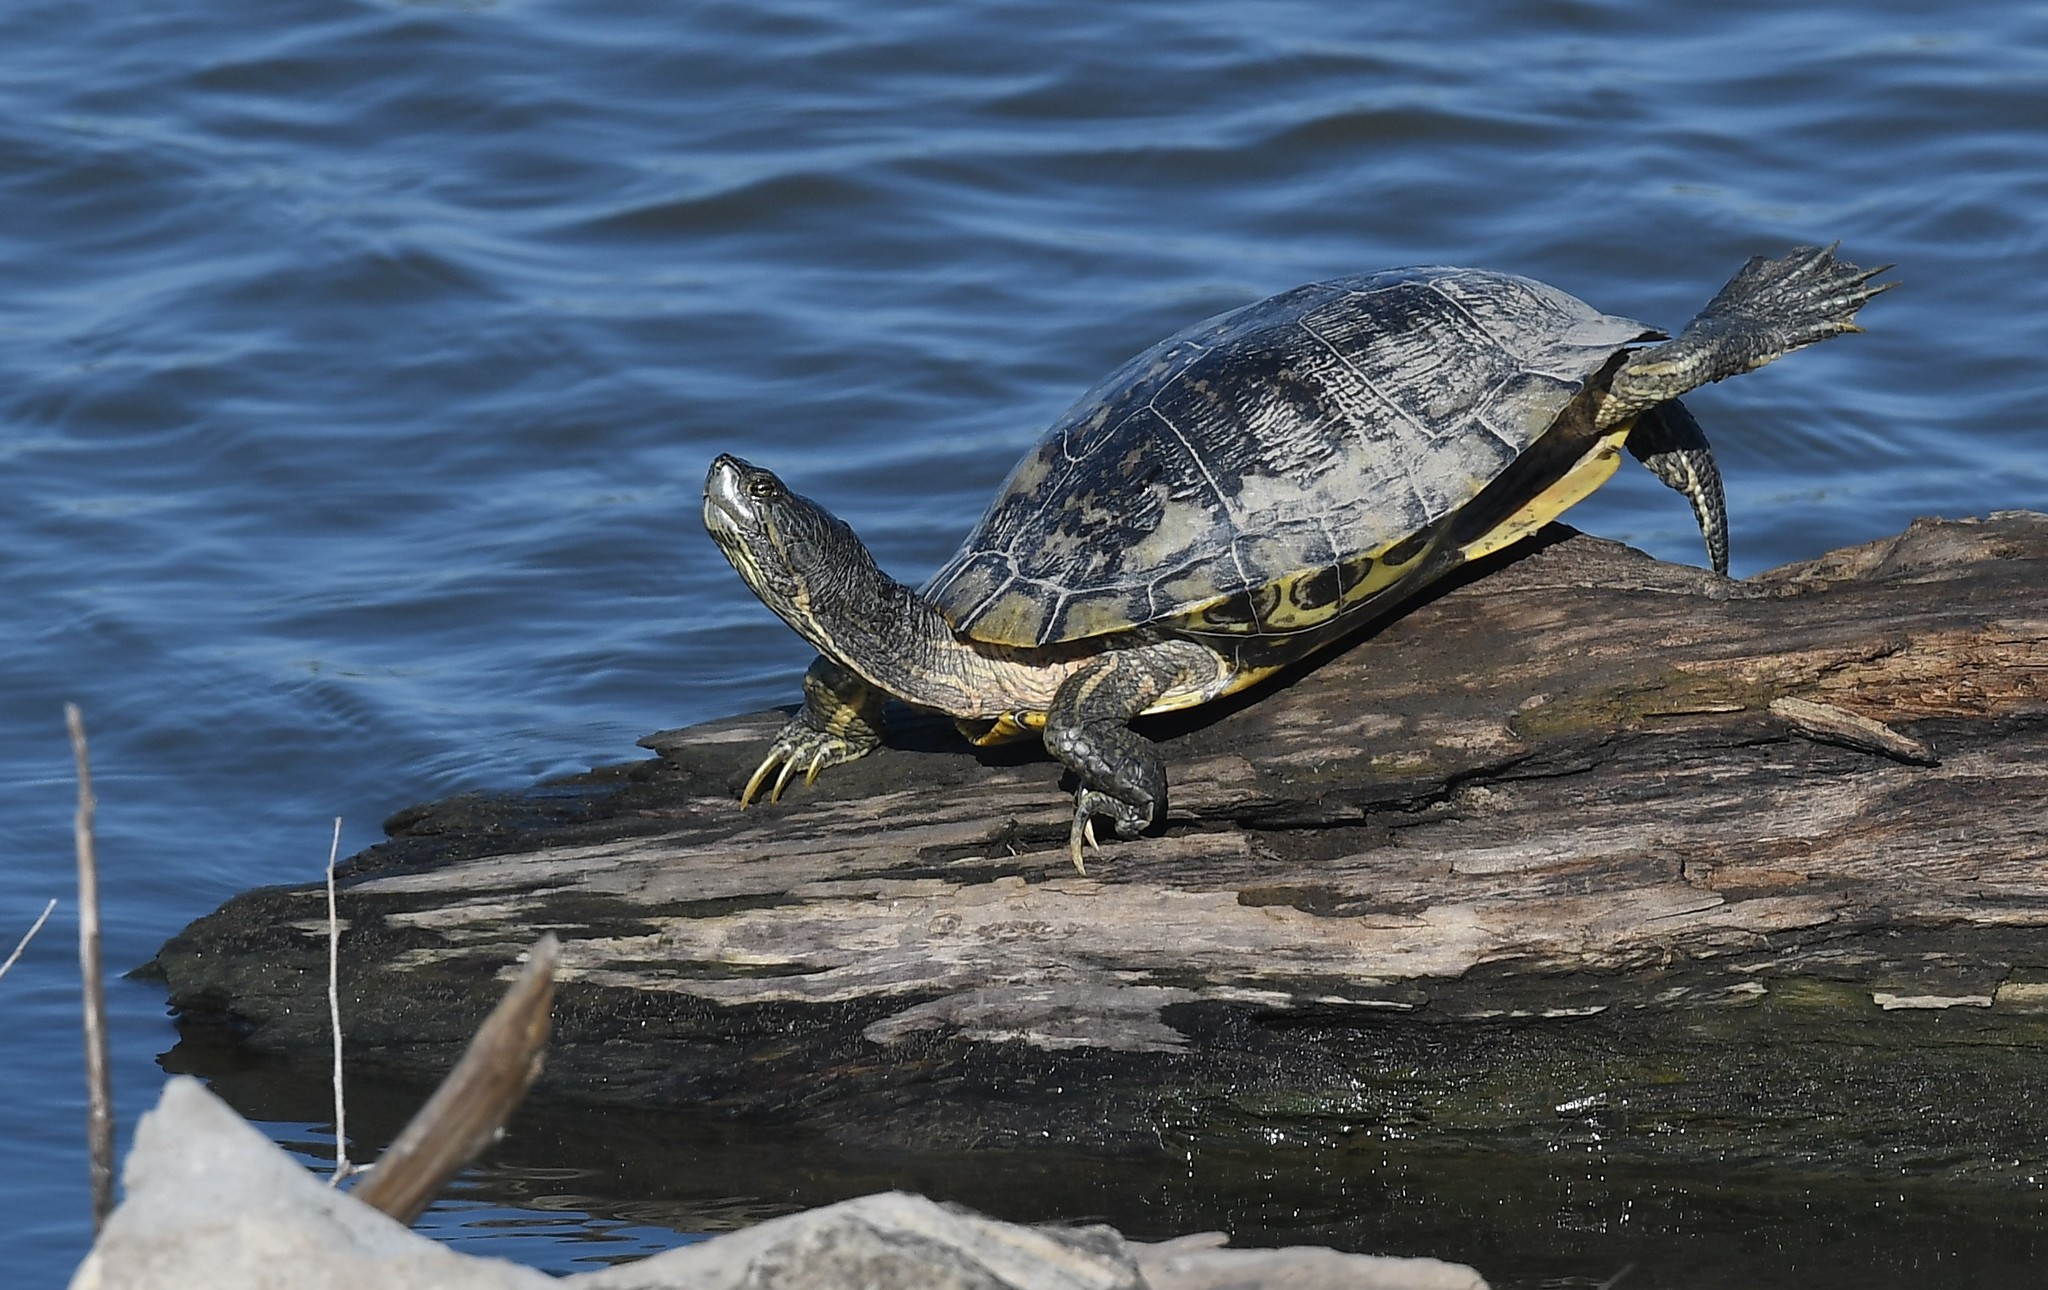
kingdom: Animalia
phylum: Chordata
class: Testudines
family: Emydidae
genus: Trachemys
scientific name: Trachemys scripta
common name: Slider
